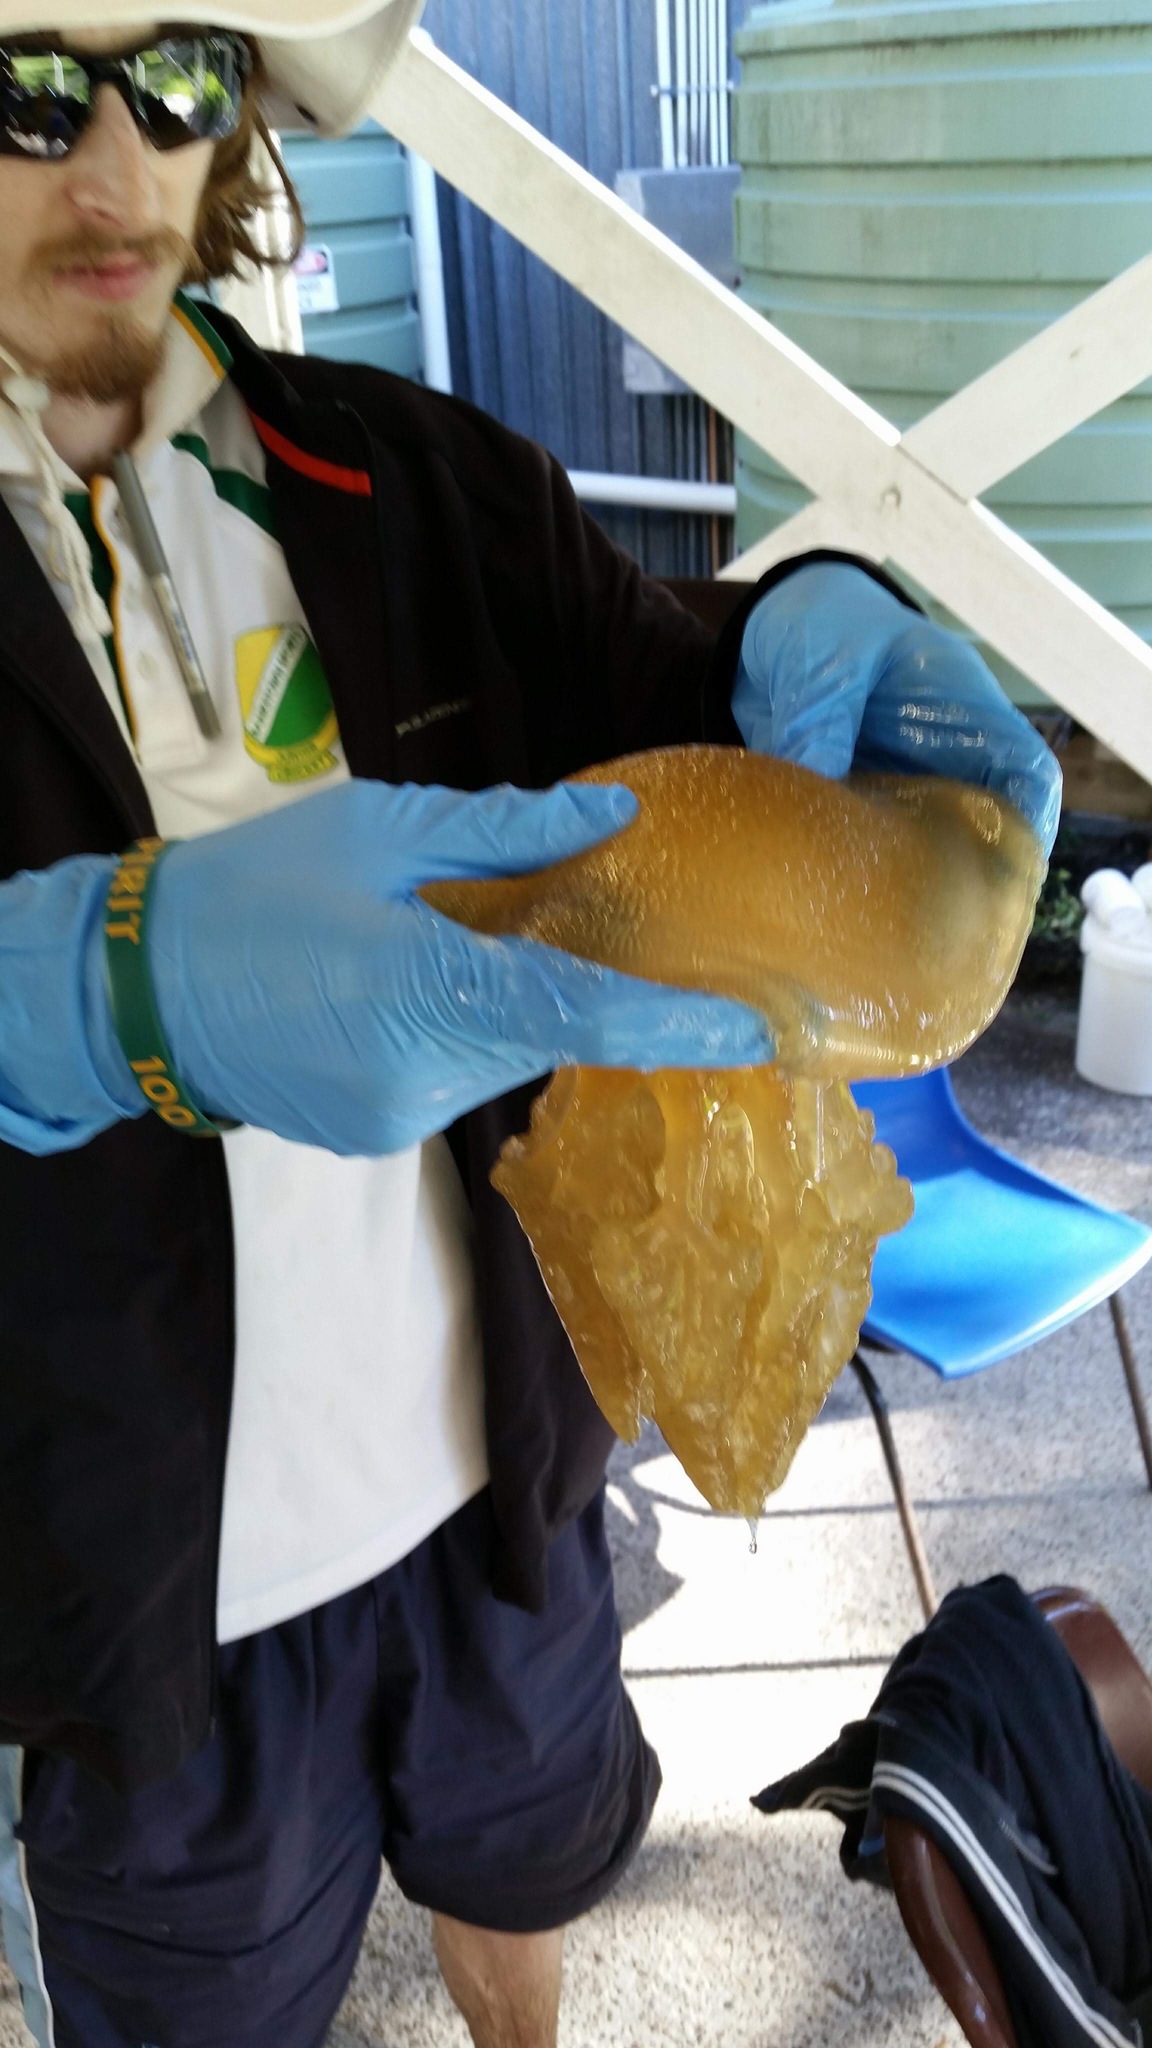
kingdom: Animalia
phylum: Cnidaria
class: Scyphozoa
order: Rhizostomeae
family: Catostylidae
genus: Catostylus
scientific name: Catostylus mosaicus
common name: Blue blubber
